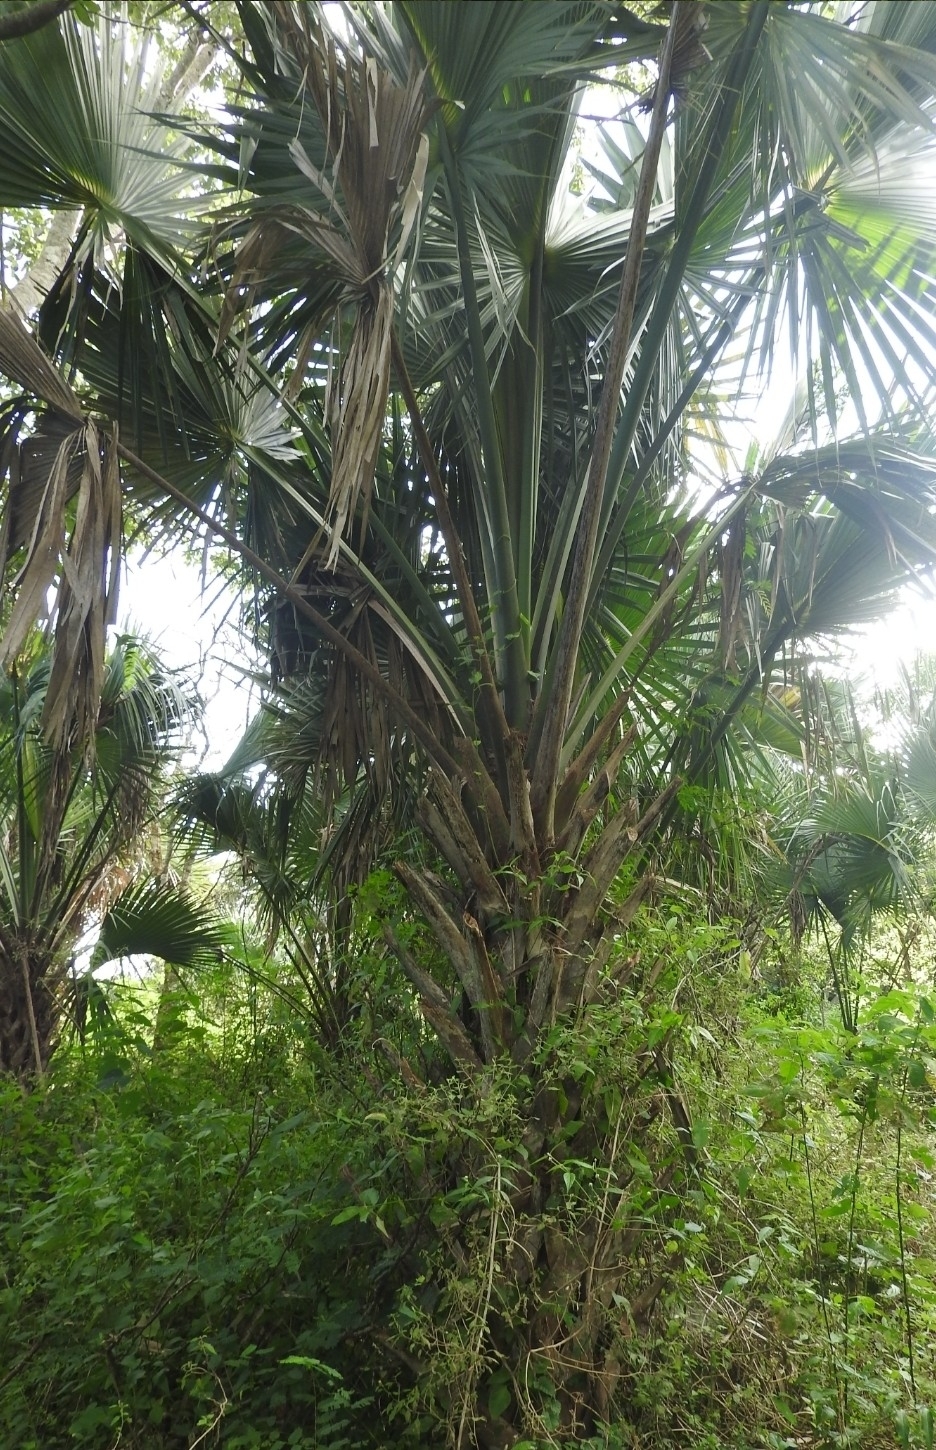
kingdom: Plantae
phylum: Tracheophyta
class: Liliopsida
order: Arecales
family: Arecaceae
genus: Sabal
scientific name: Sabal yapa
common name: Thatch palm
